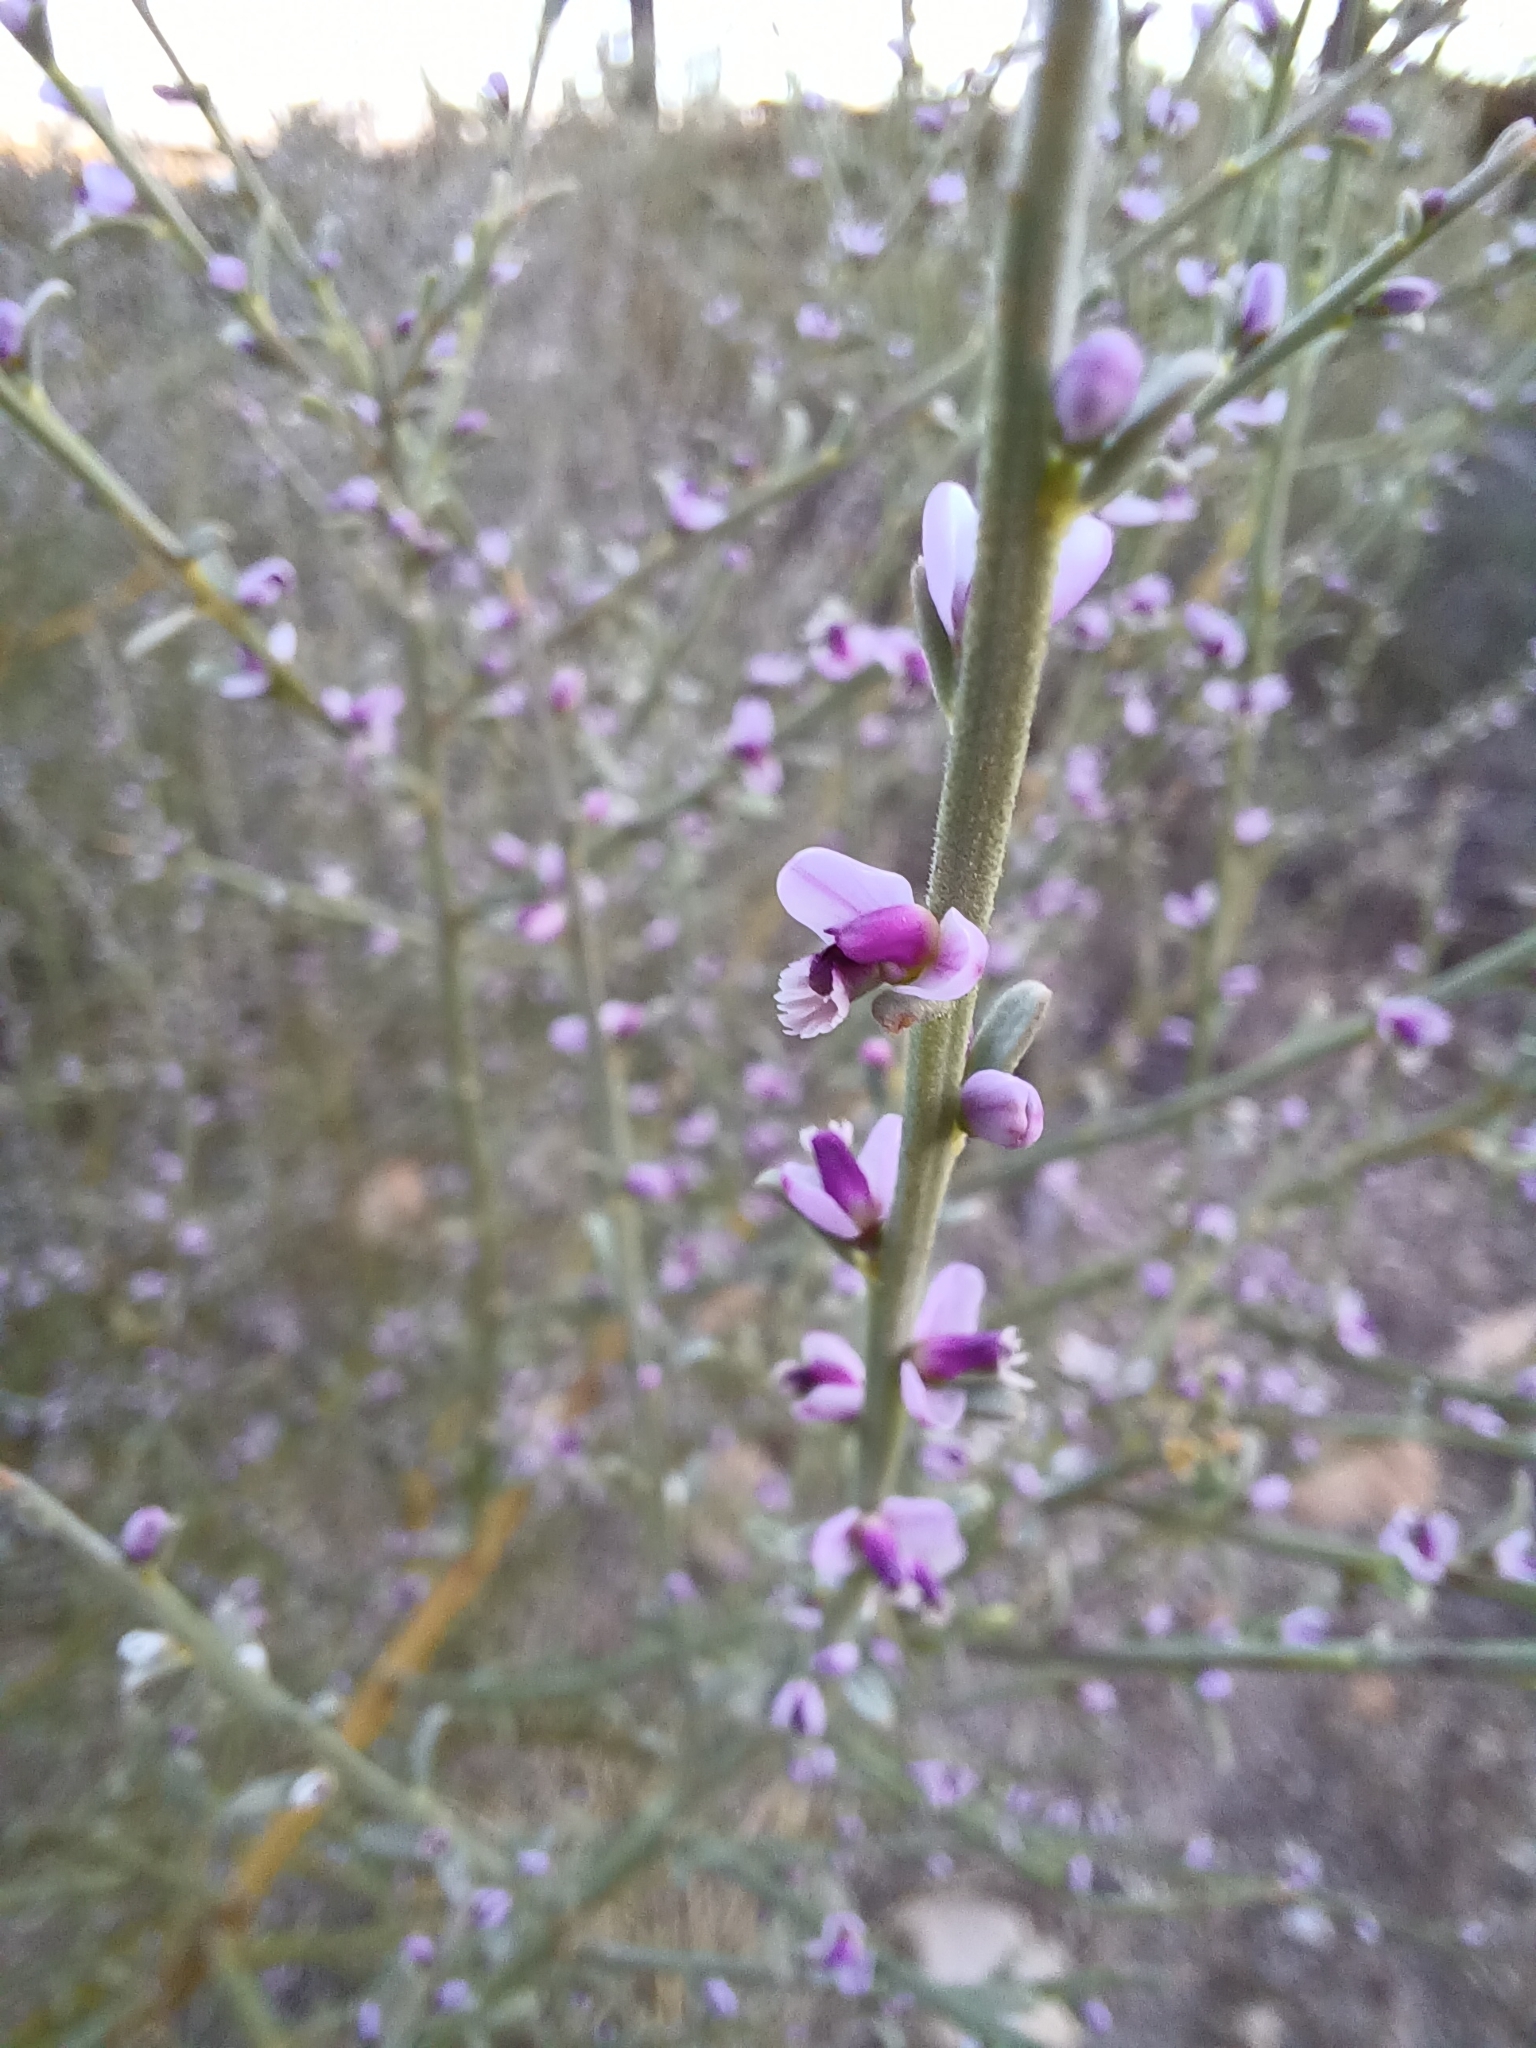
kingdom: Plantae
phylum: Tracheophyta
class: Magnoliopsida
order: Fabales
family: Polygalaceae
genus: Muraltia
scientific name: Muraltia spinosa
